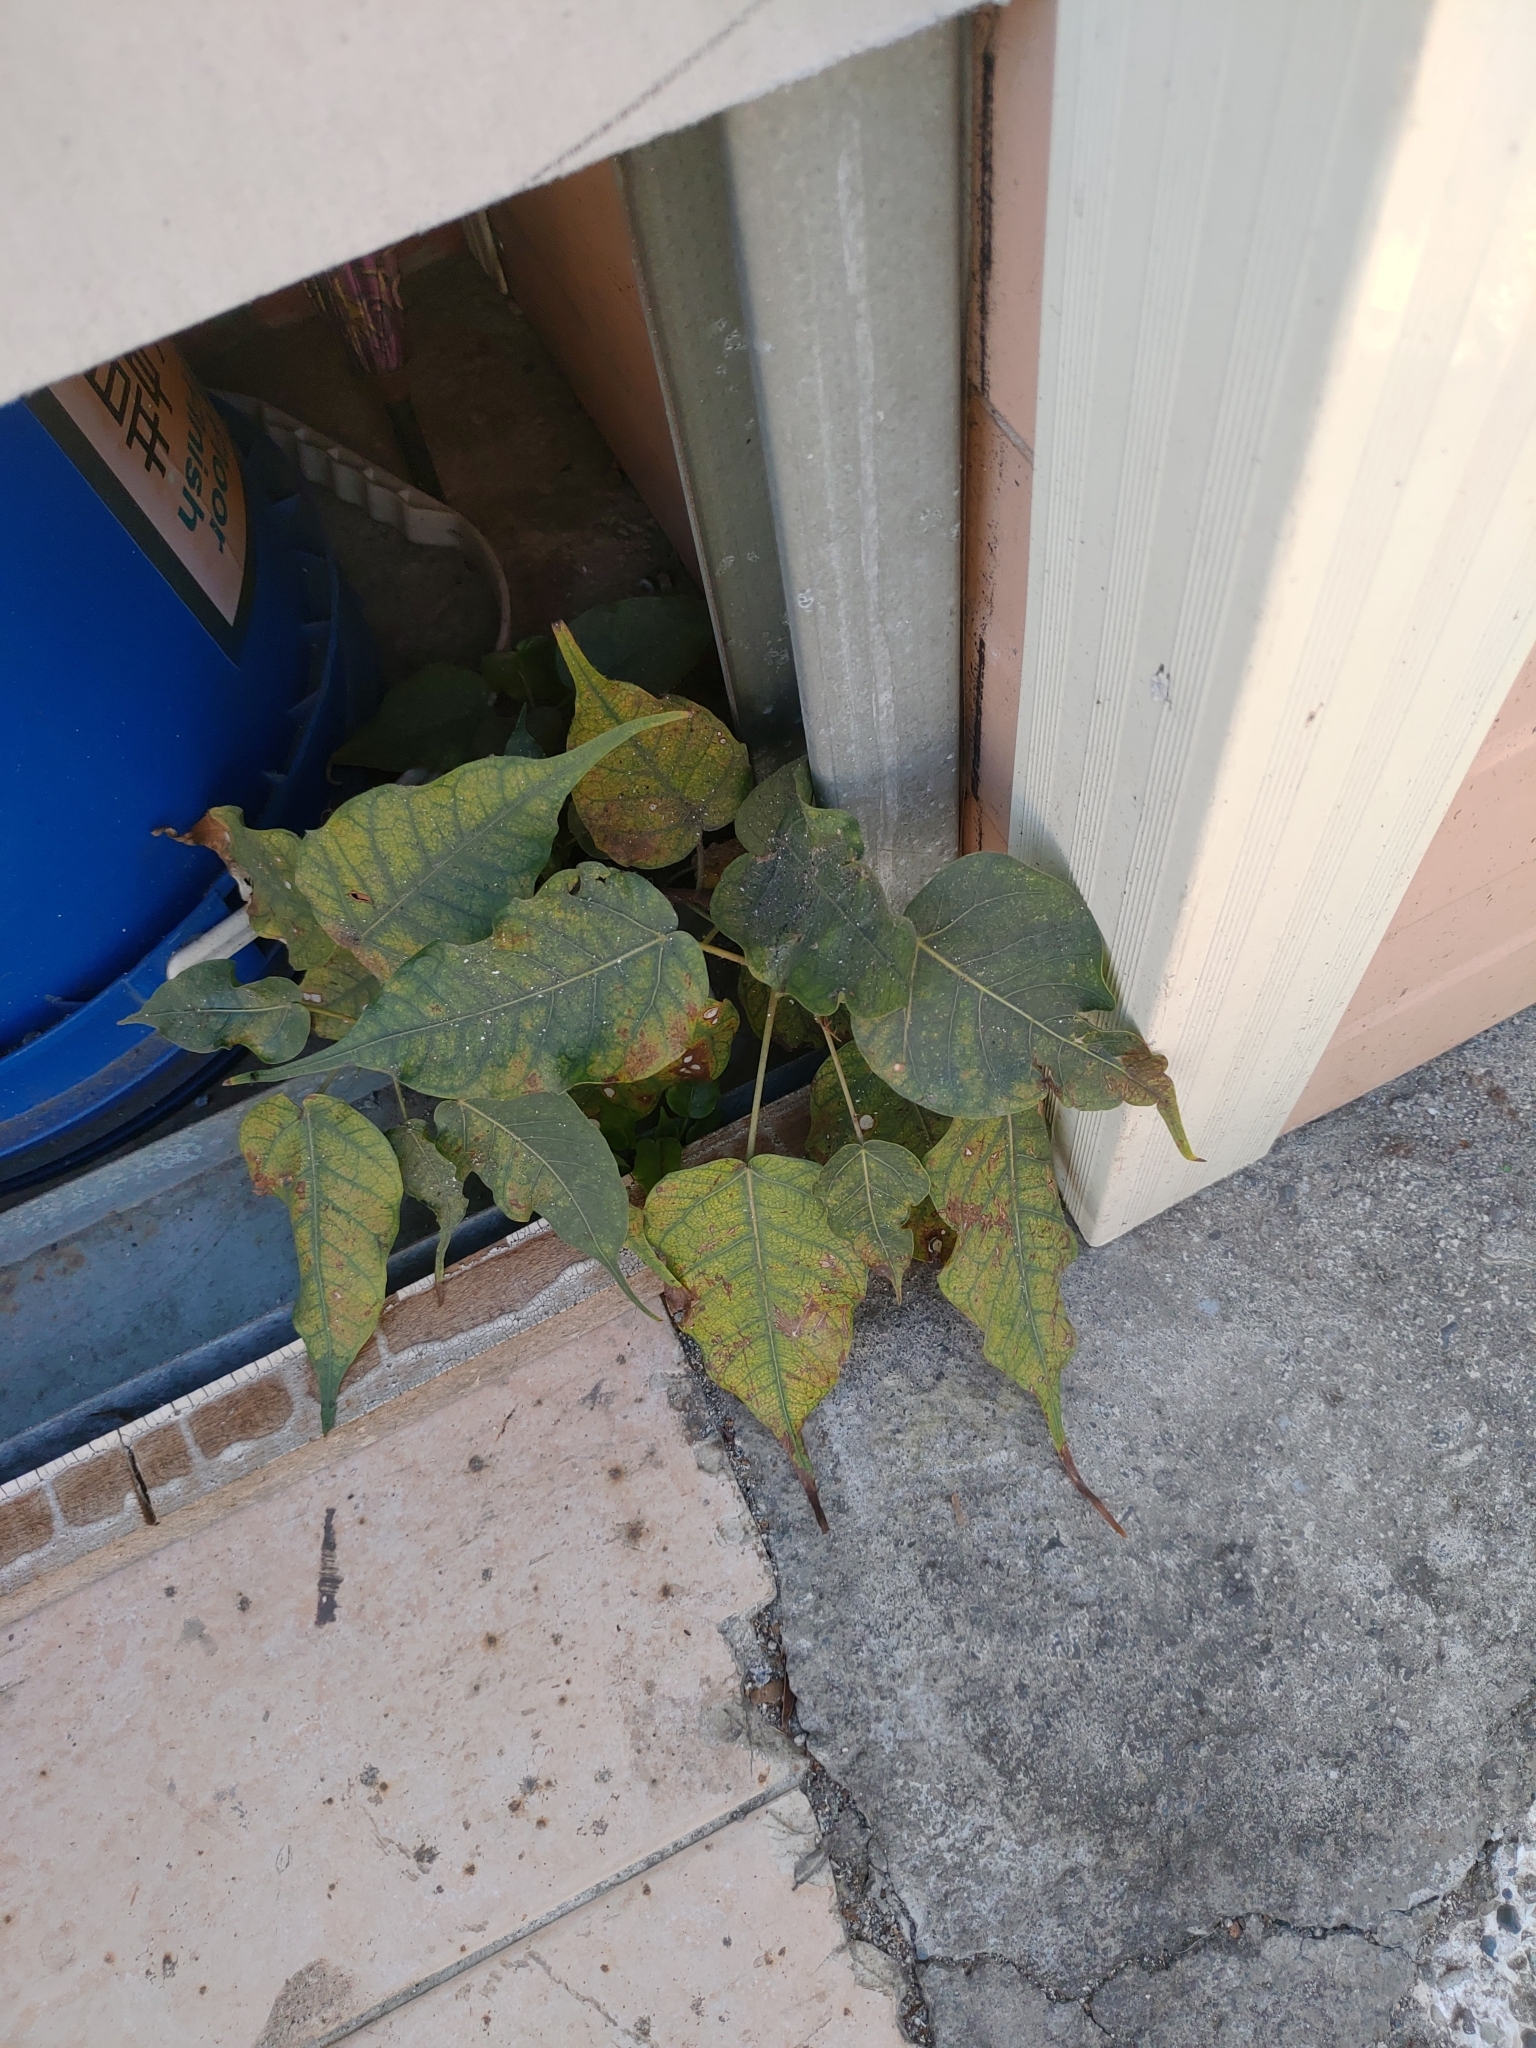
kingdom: Plantae
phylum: Tracheophyta
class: Magnoliopsida
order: Rosales
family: Moraceae
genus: Ficus
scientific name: Ficus religiosa
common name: Bodhi tree
